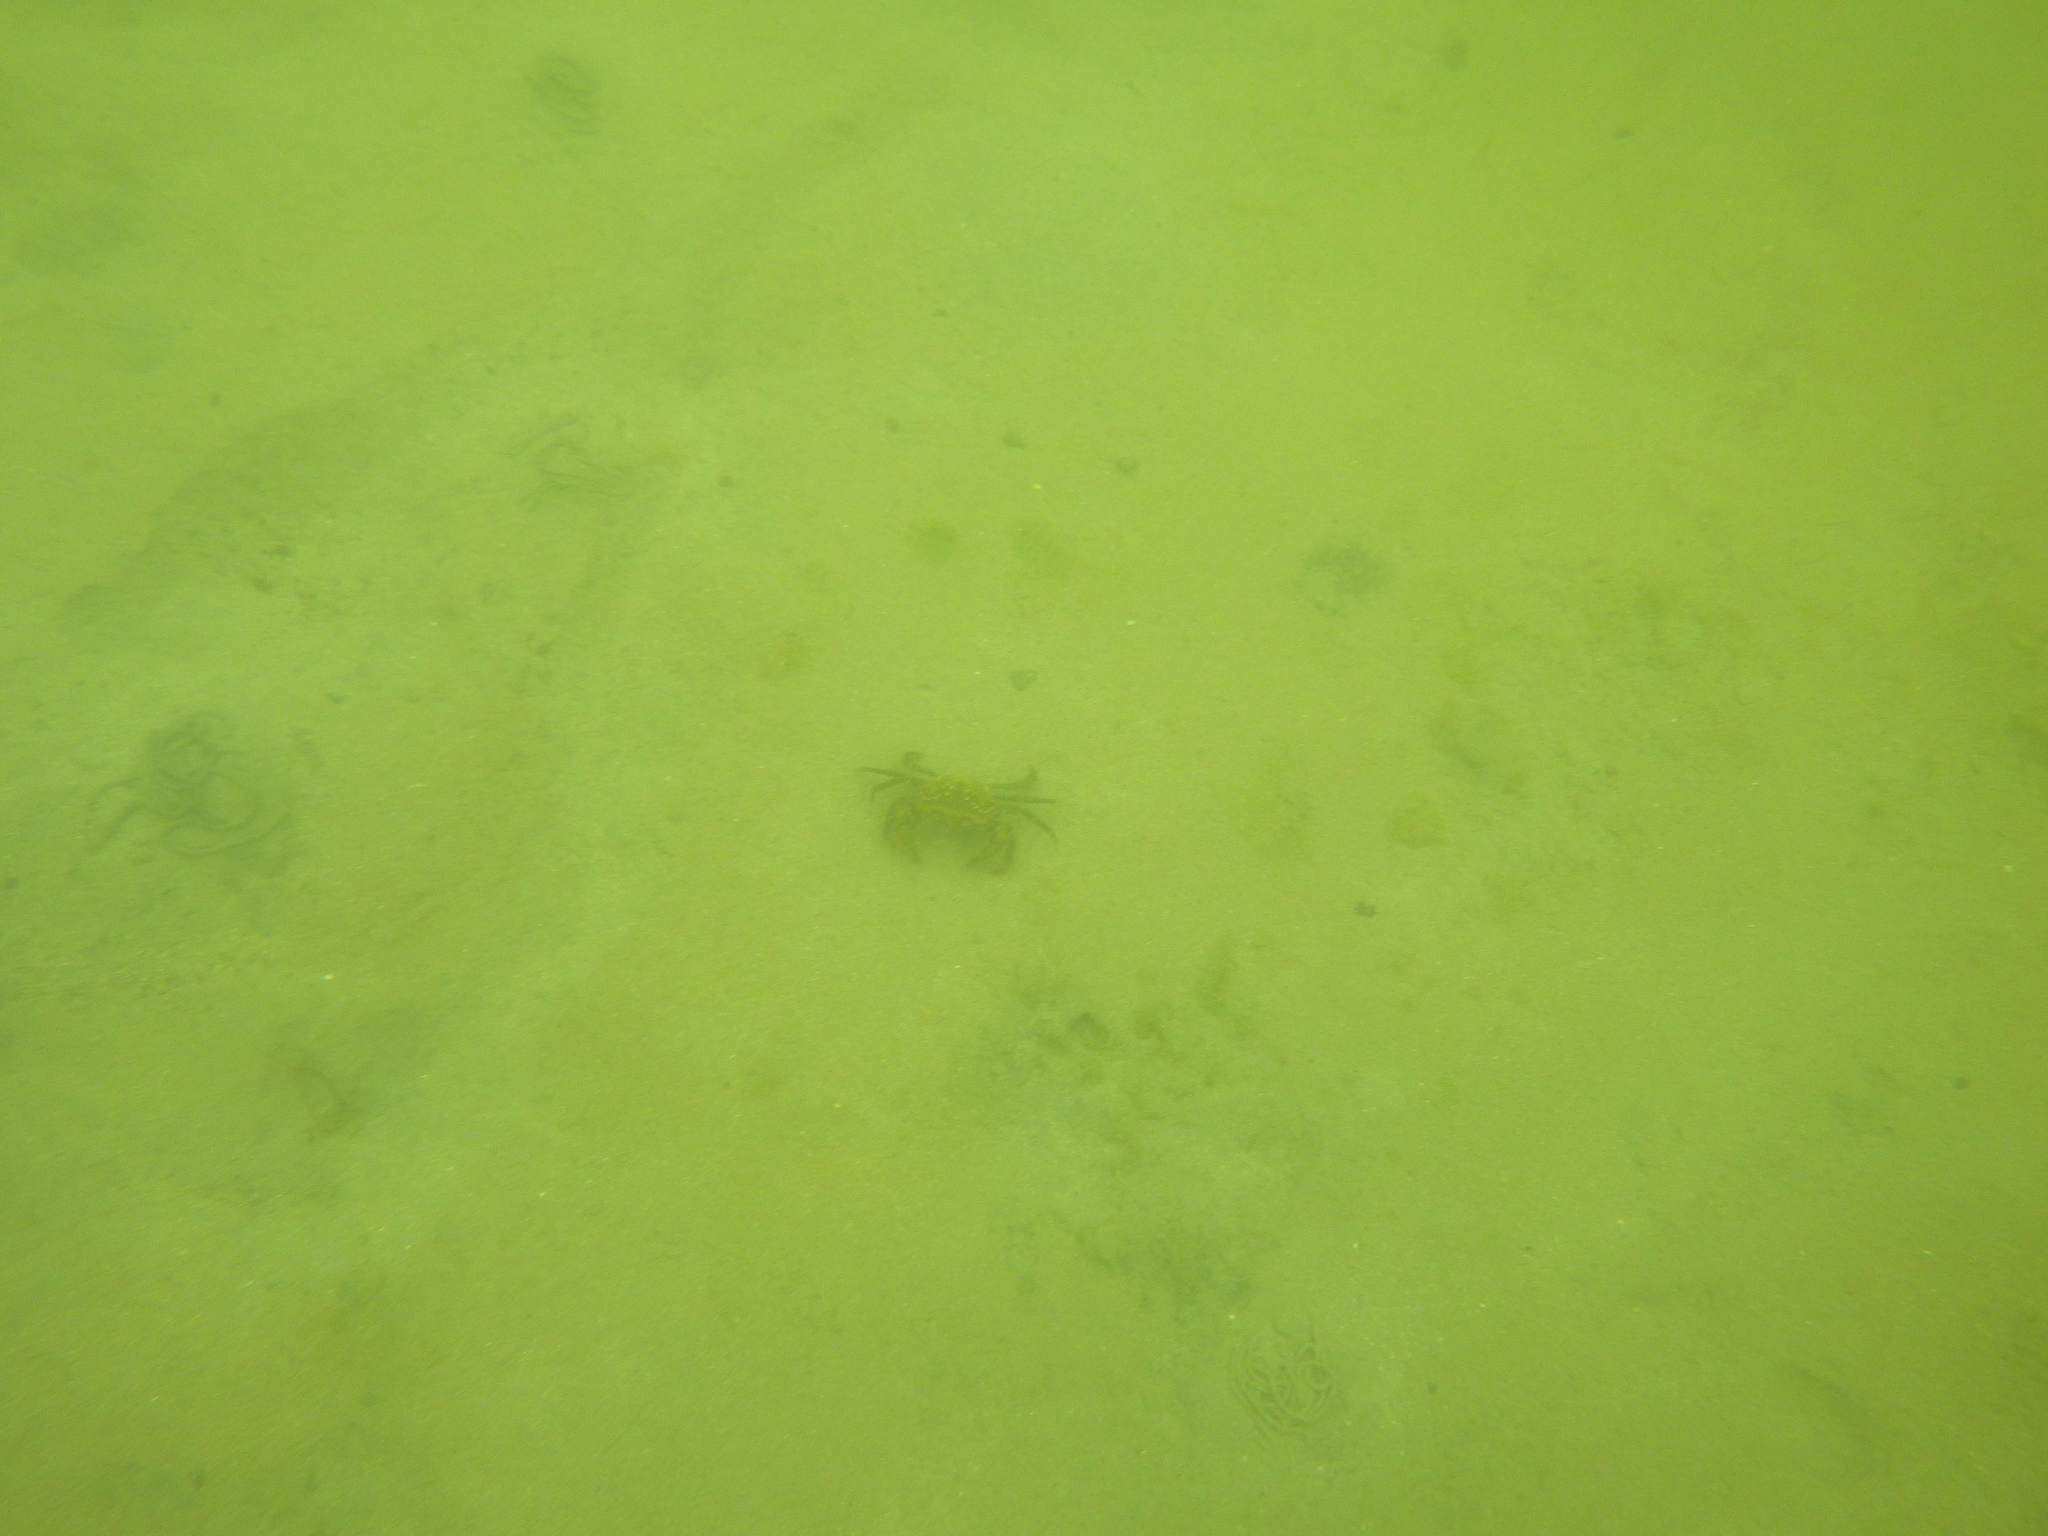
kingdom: Animalia
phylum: Arthropoda
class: Malacostraca
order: Decapoda
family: Carcinidae
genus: Carcinus
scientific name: Carcinus maenas
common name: European green crab
